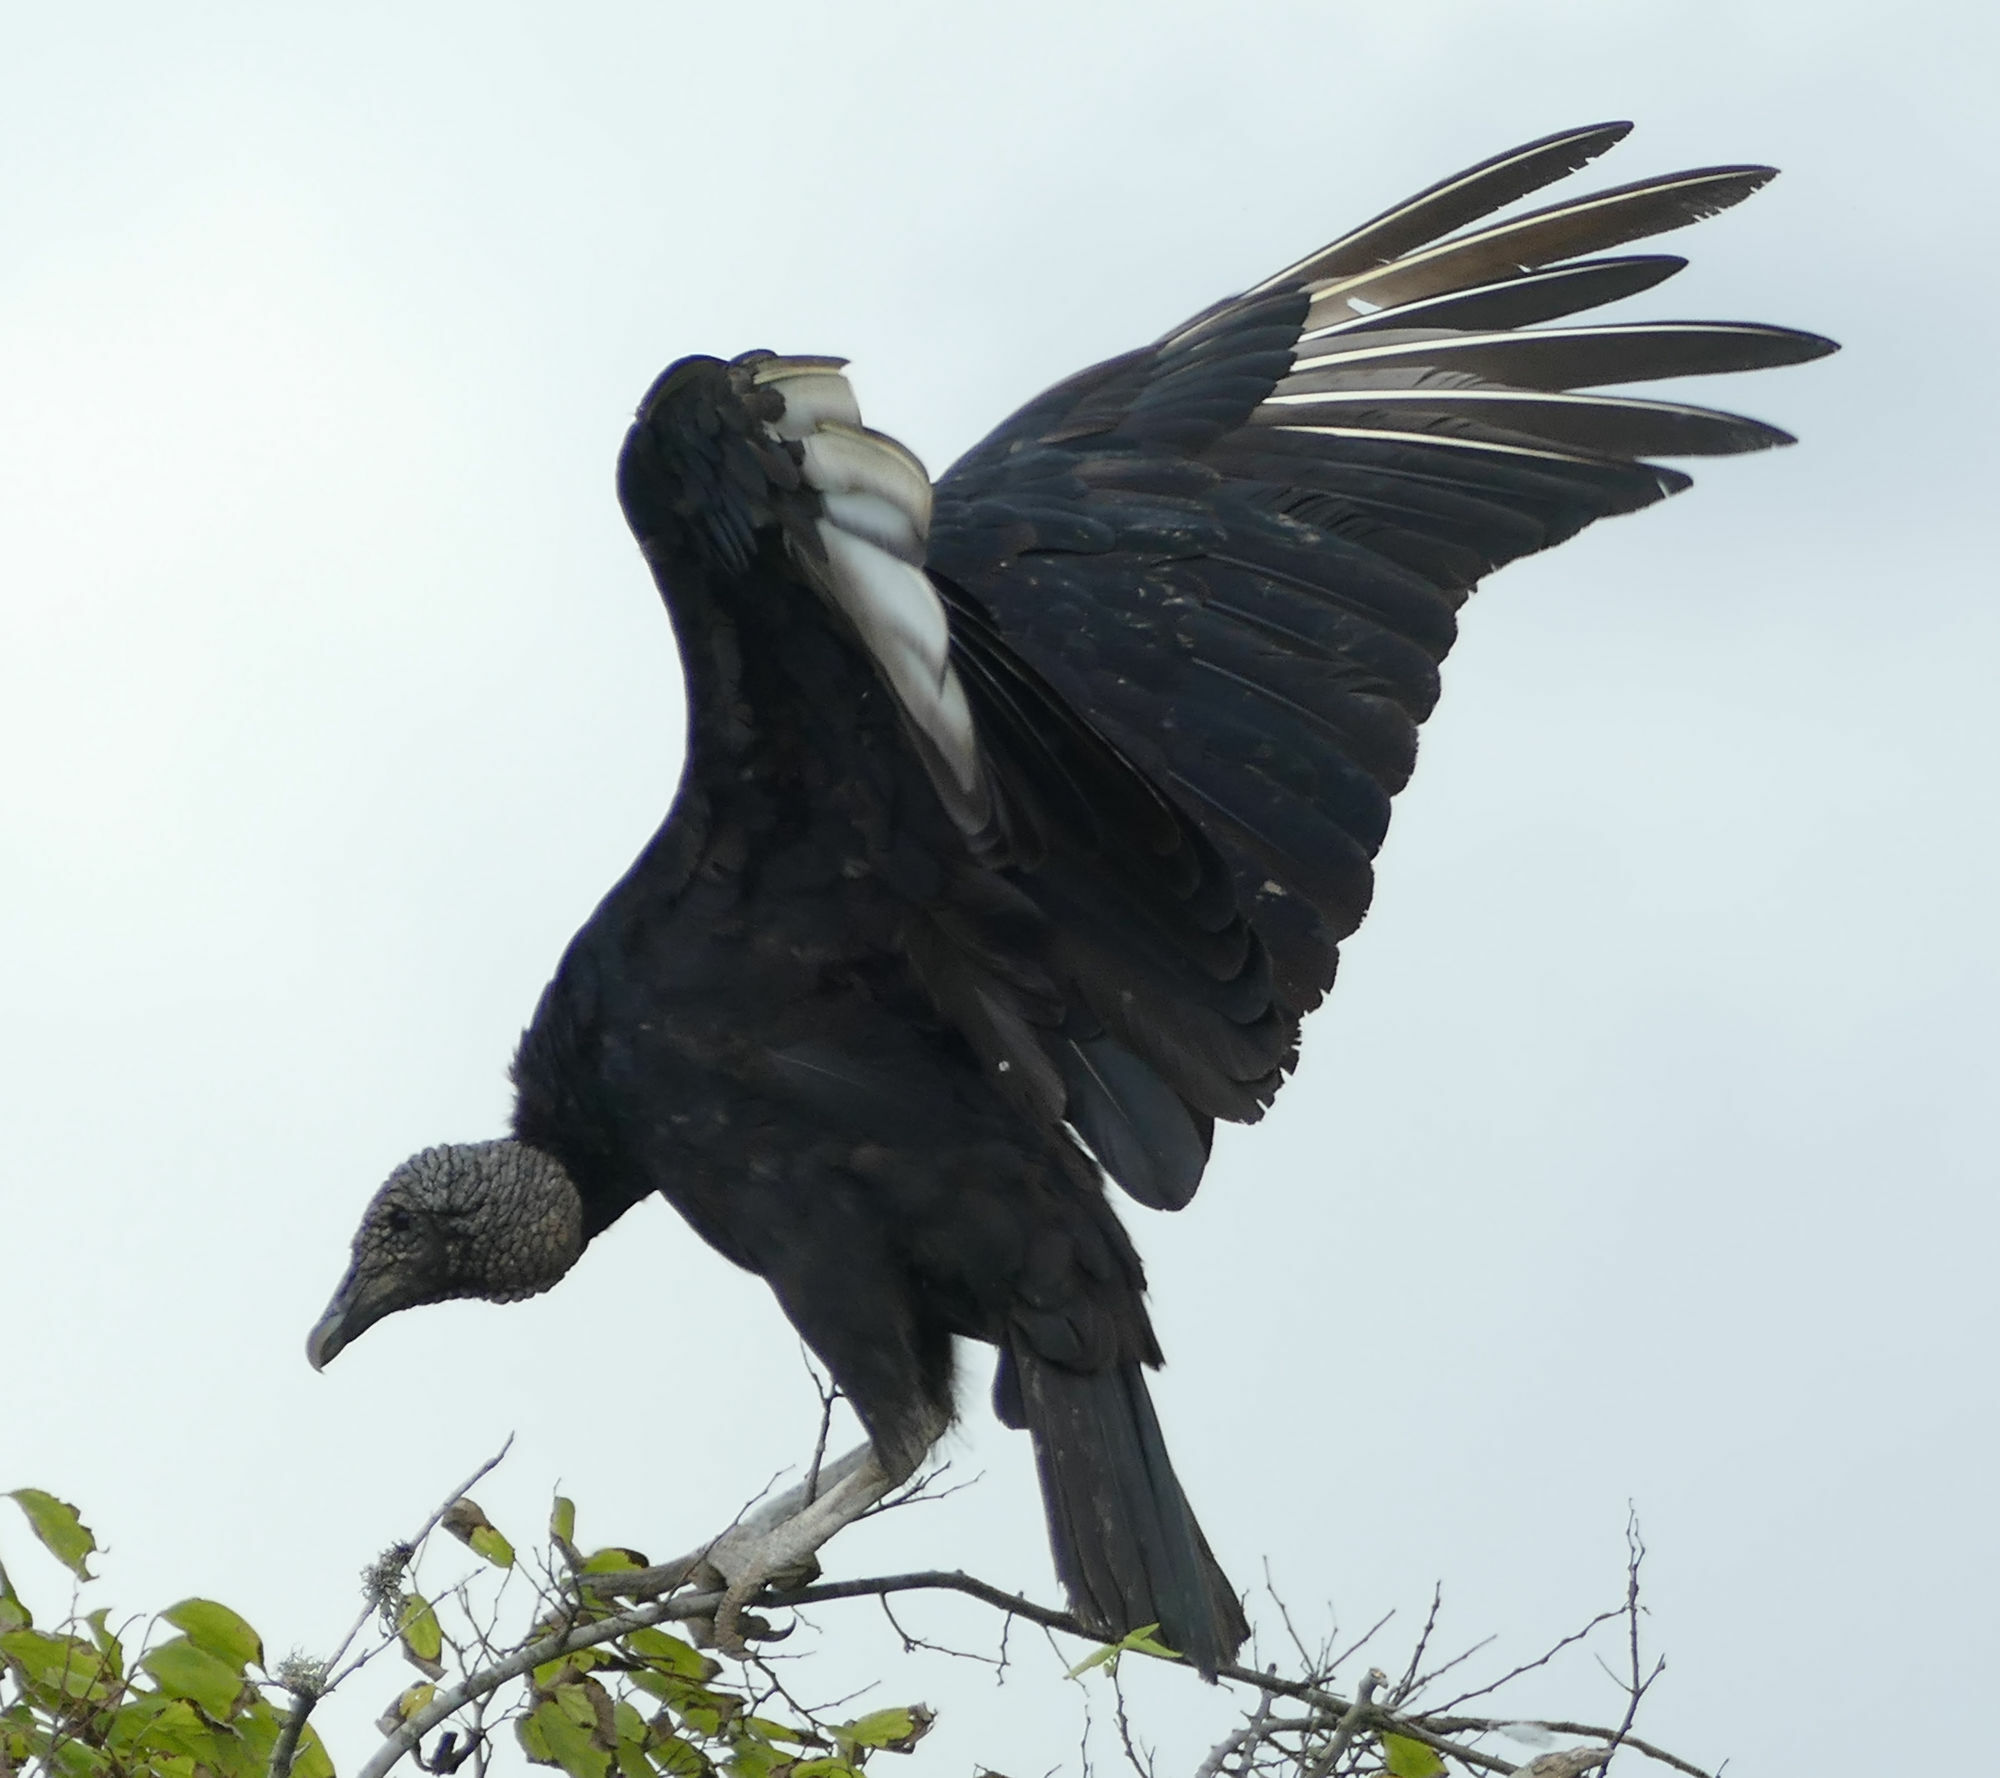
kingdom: Animalia
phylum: Chordata
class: Aves
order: Accipitriformes
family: Cathartidae
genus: Coragyps
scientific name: Coragyps atratus
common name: Black vulture
